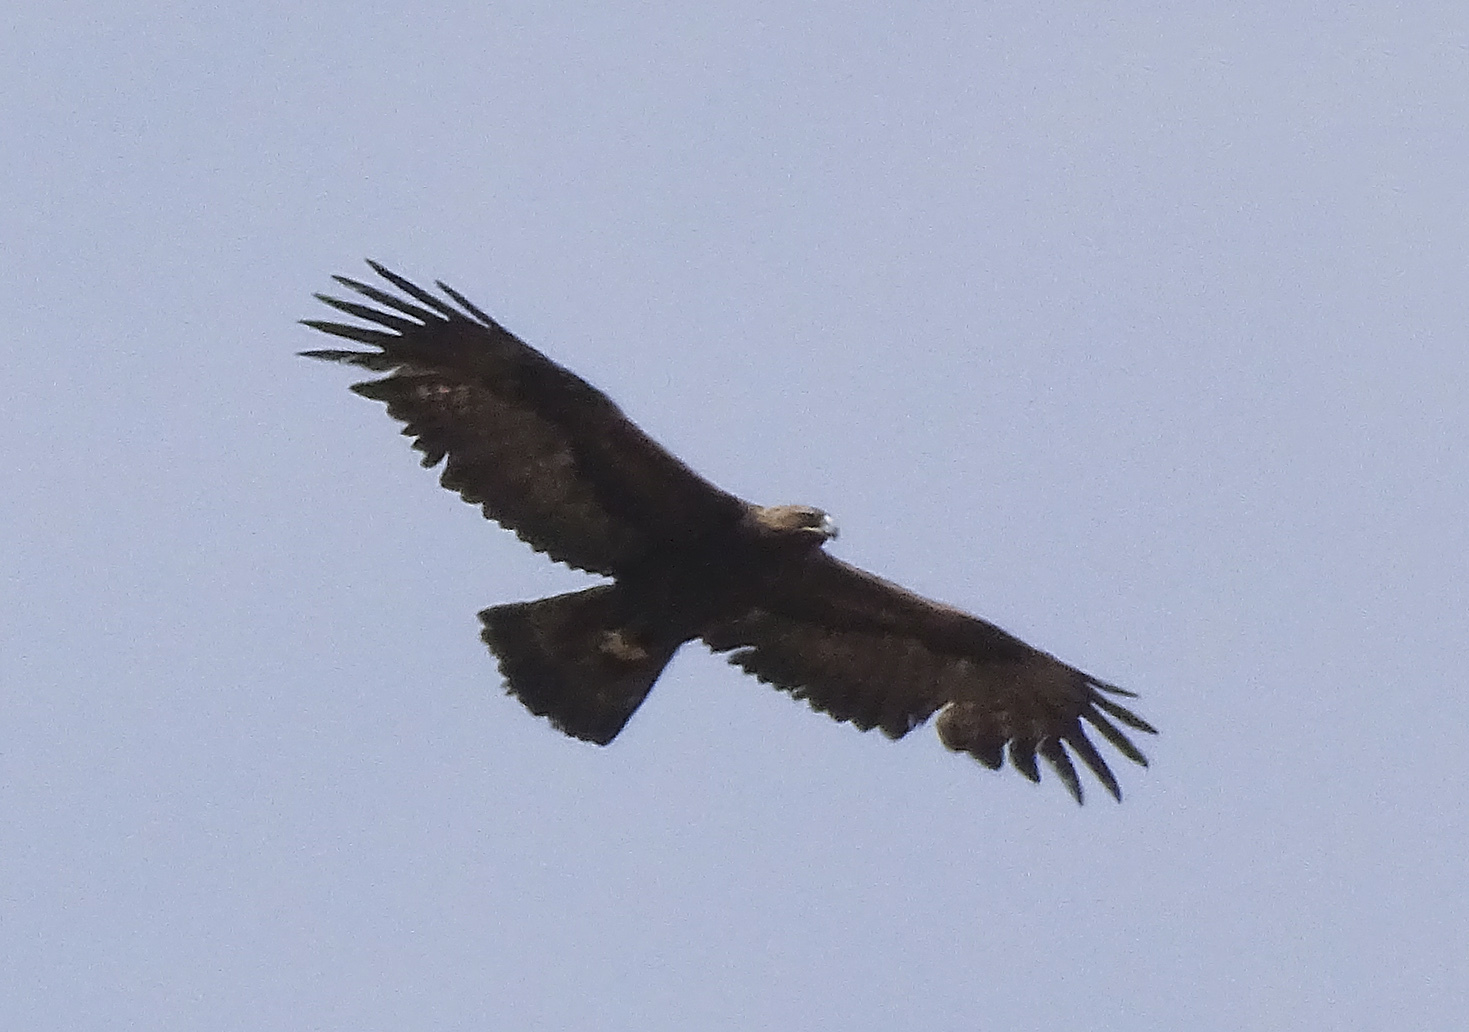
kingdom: Animalia
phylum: Chordata
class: Aves
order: Accipitriformes
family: Accipitridae
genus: Aquila
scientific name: Aquila chrysaetos
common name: Golden eagle
